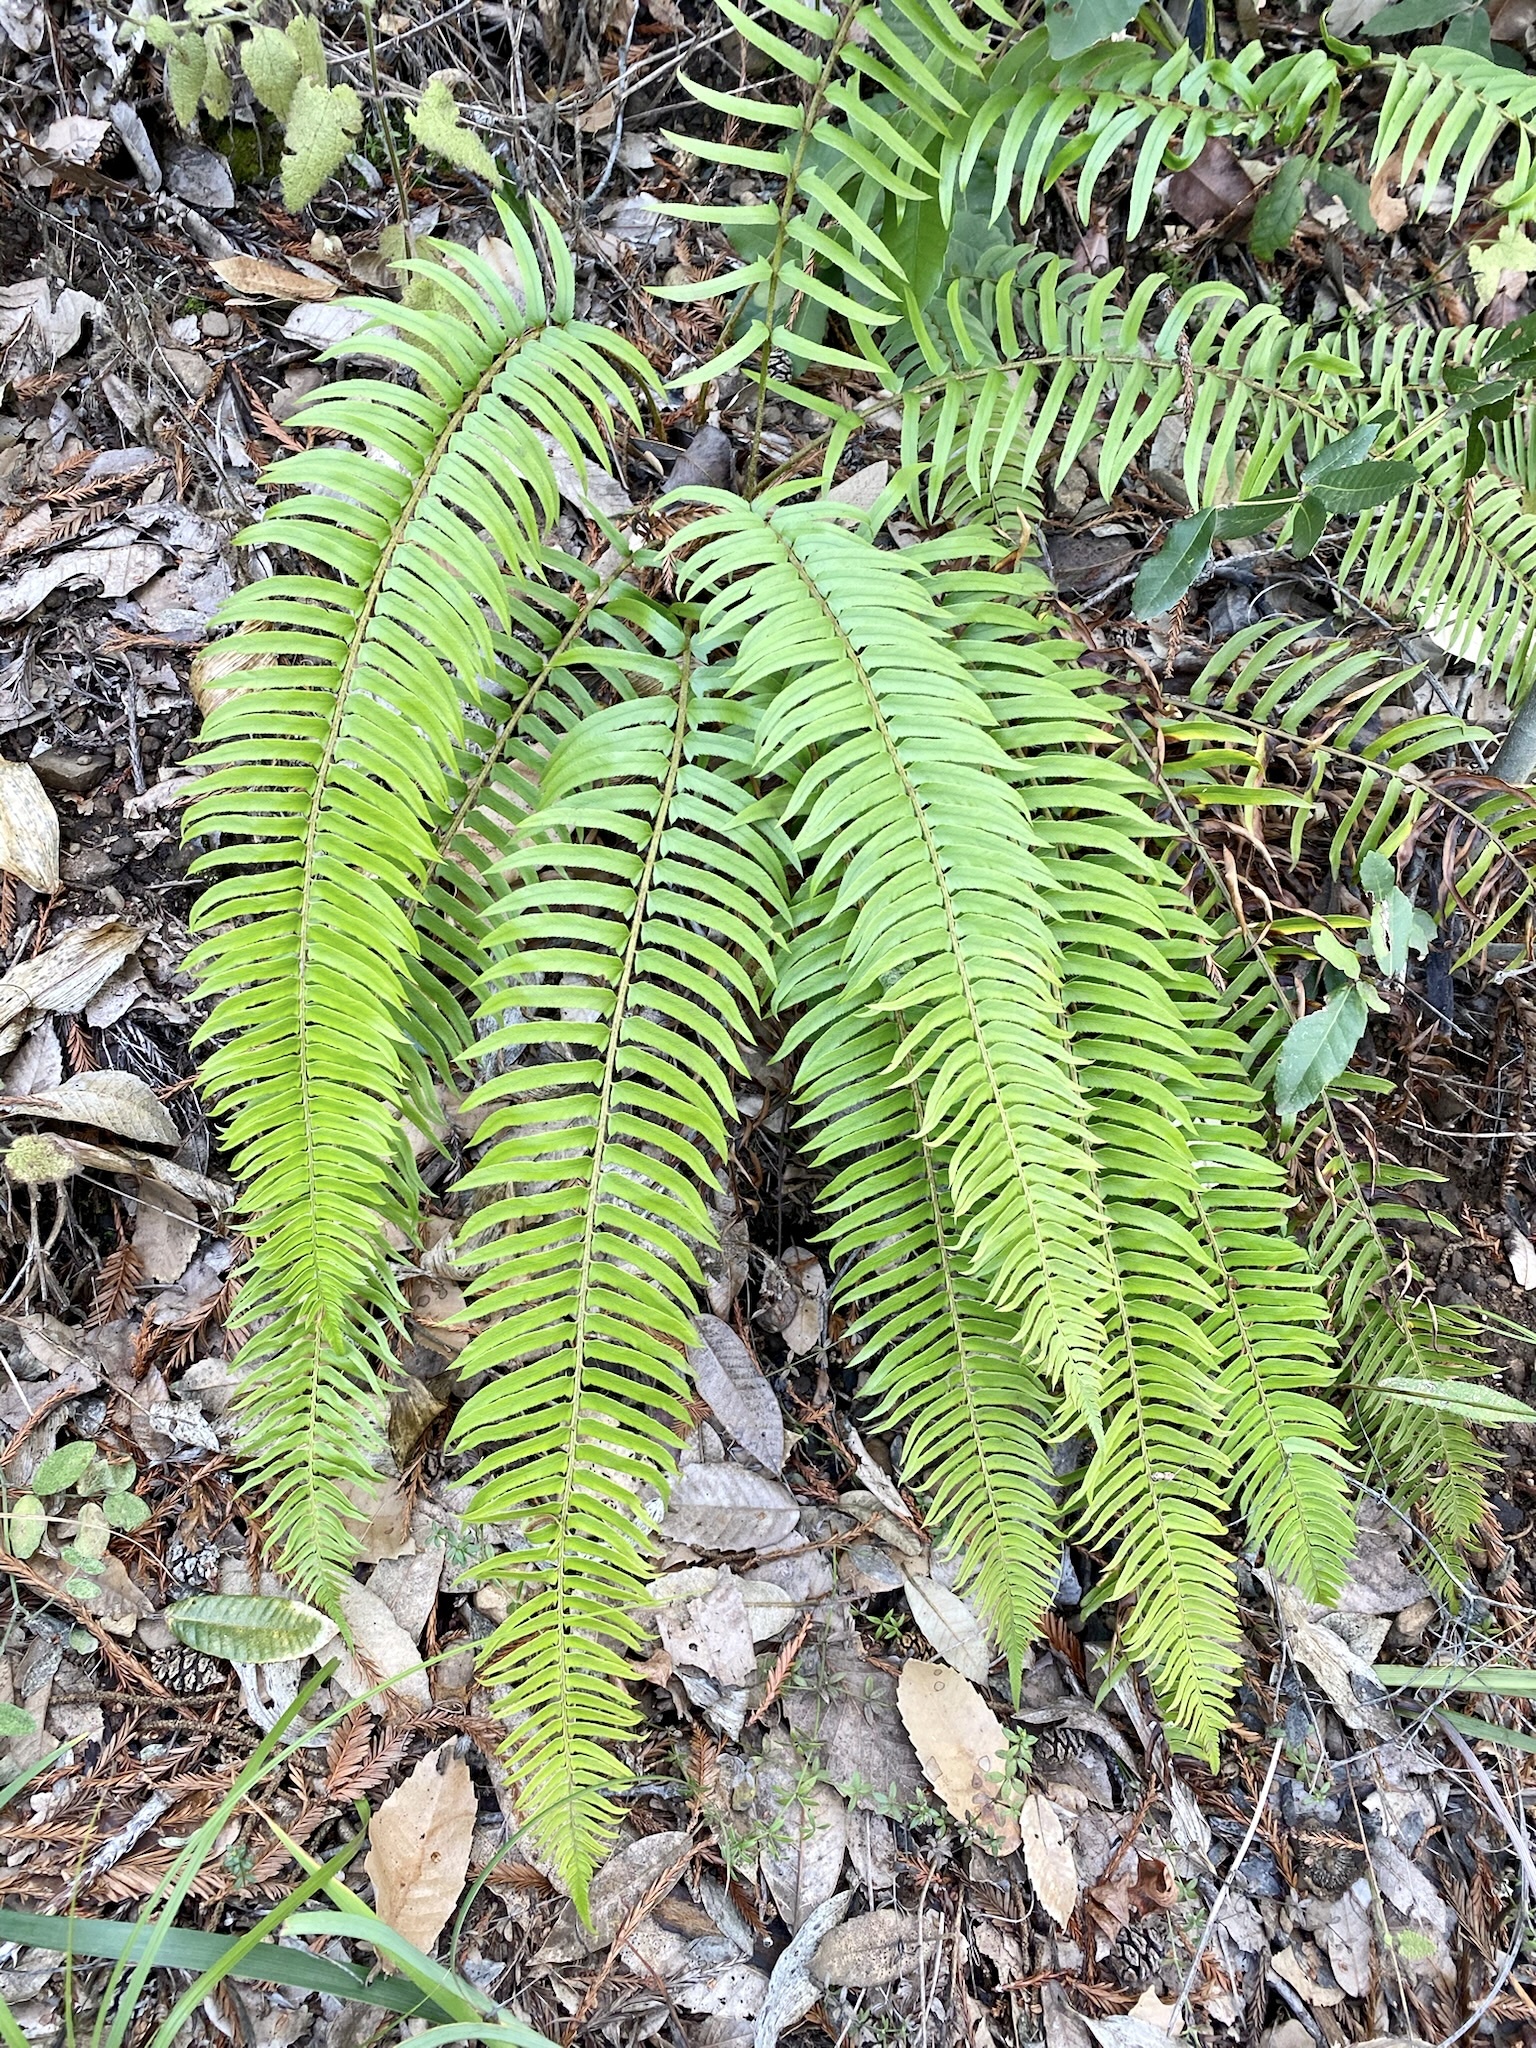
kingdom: Plantae
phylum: Tracheophyta
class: Polypodiopsida
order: Polypodiales
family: Dryopteridaceae
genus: Polystichum
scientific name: Polystichum munitum
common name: Western sword-fern
